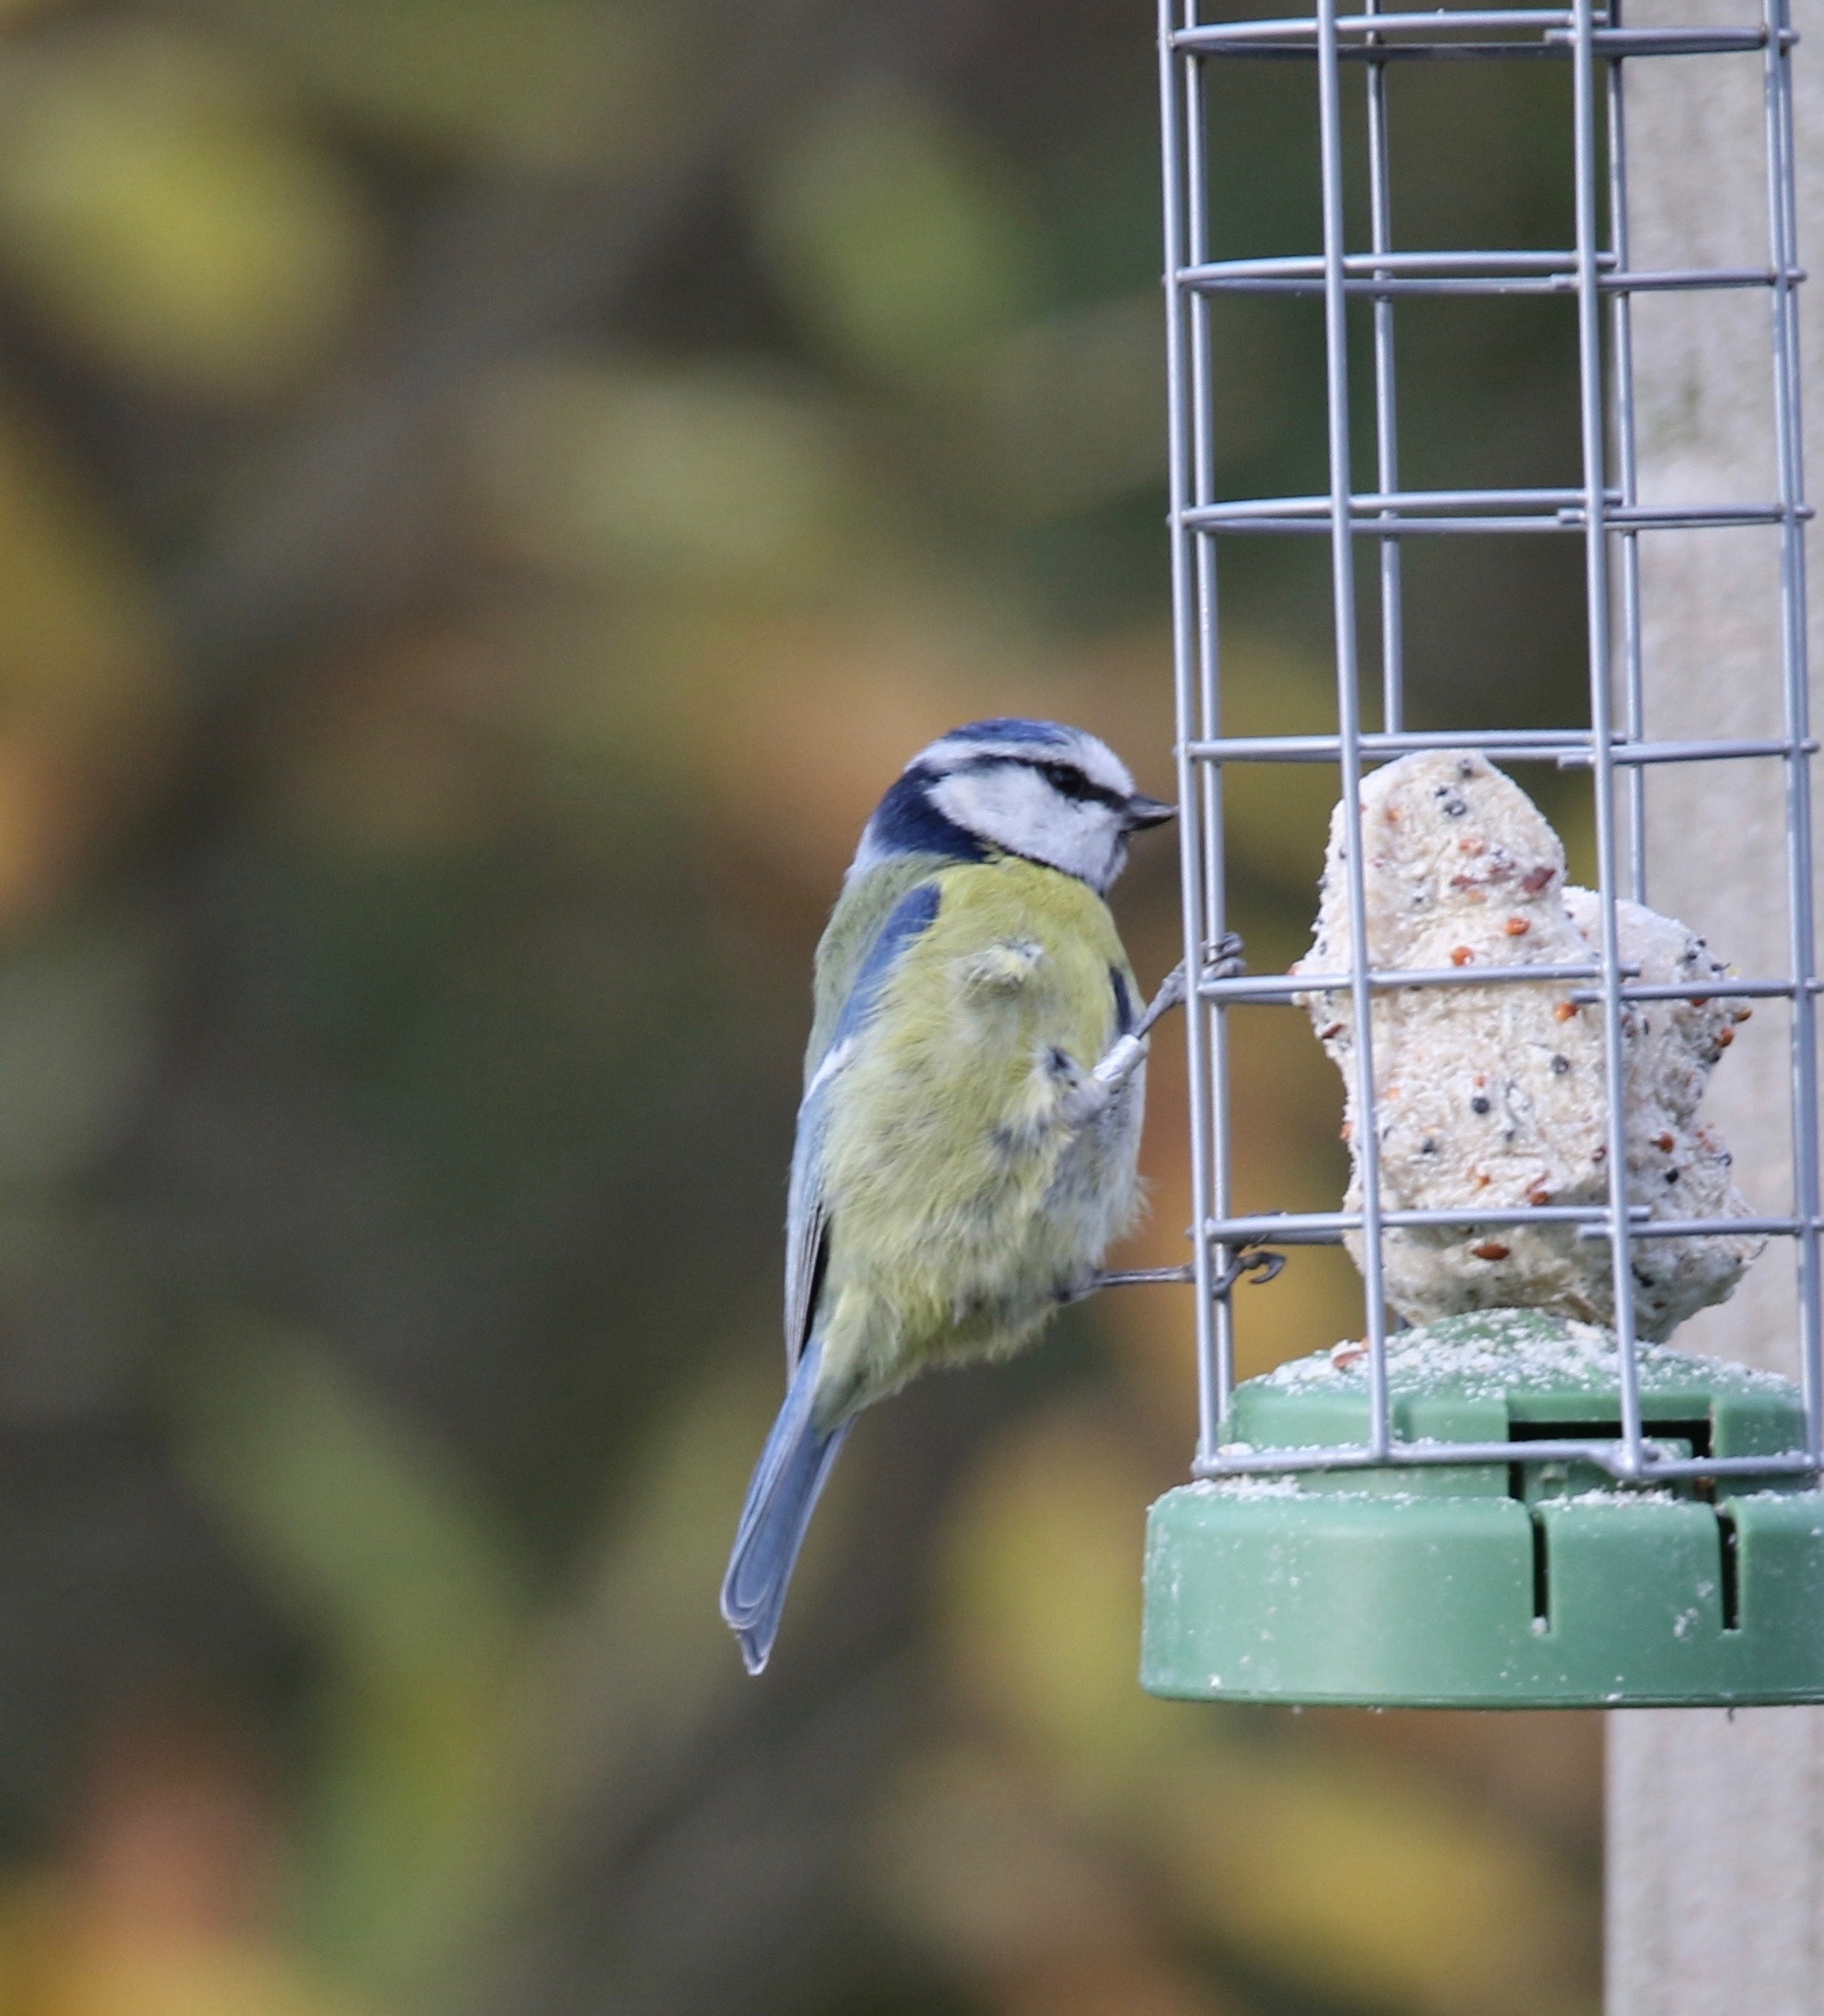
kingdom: Animalia
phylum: Chordata
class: Aves
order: Passeriformes
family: Paridae
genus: Cyanistes
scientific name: Cyanistes caeruleus
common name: Eurasian blue tit
